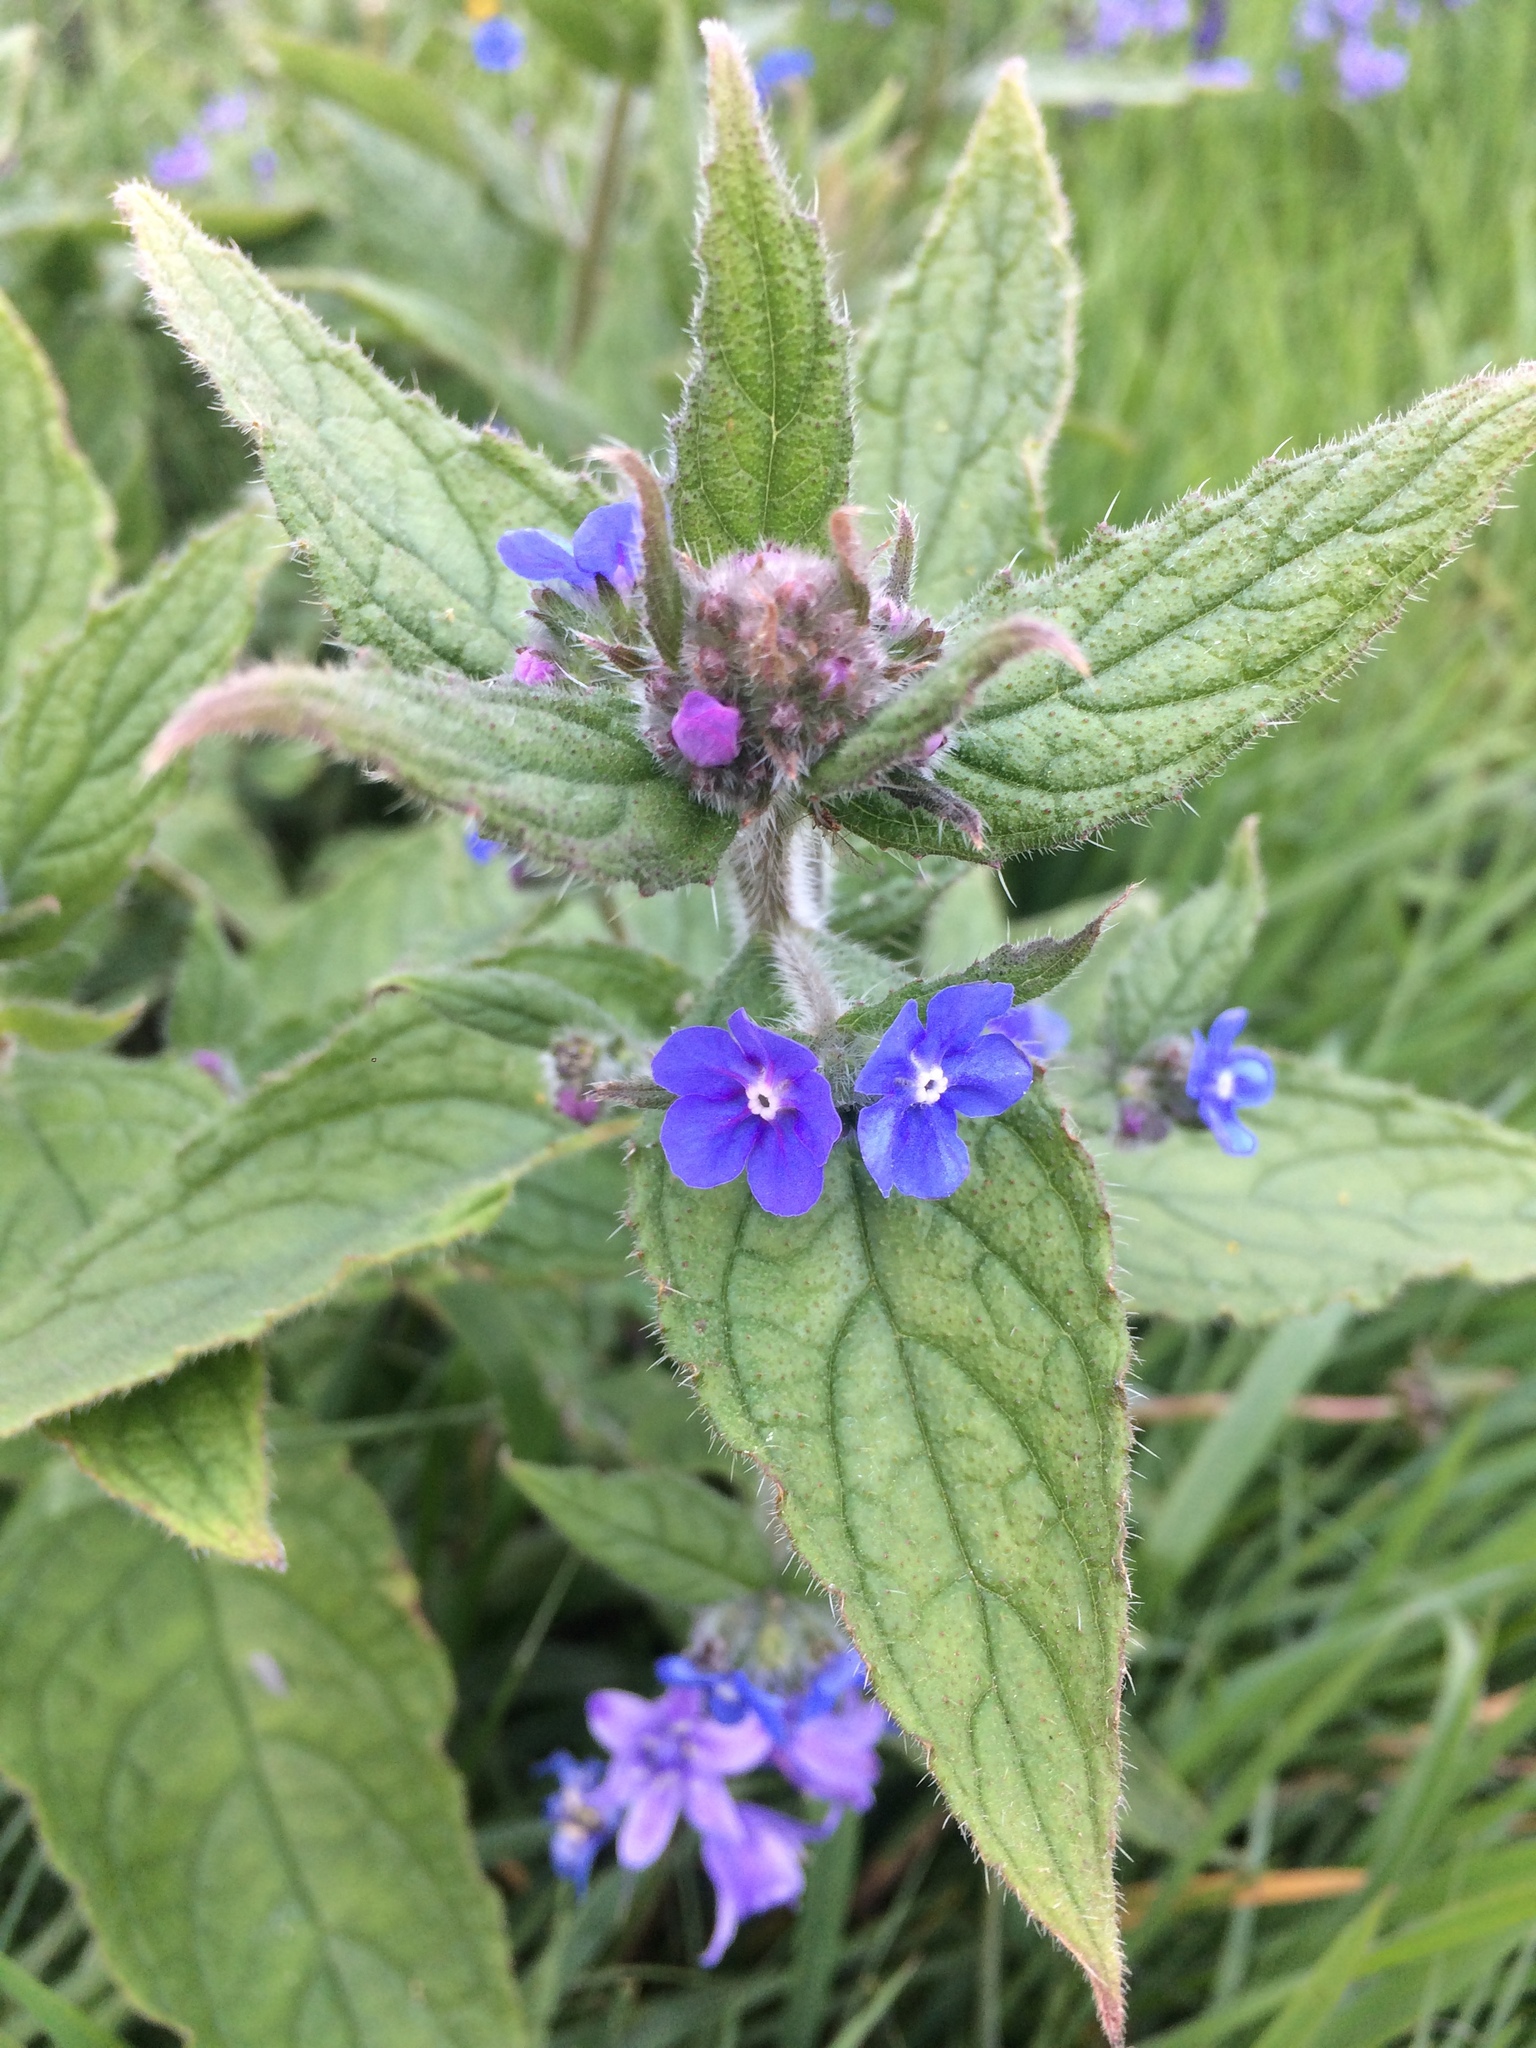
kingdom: Plantae
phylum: Tracheophyta
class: Magnoliopsida
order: Boraginales
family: Boraginaceae
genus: Pentaglottis
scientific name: Pentaglottis sempervirens
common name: Green alkanet
